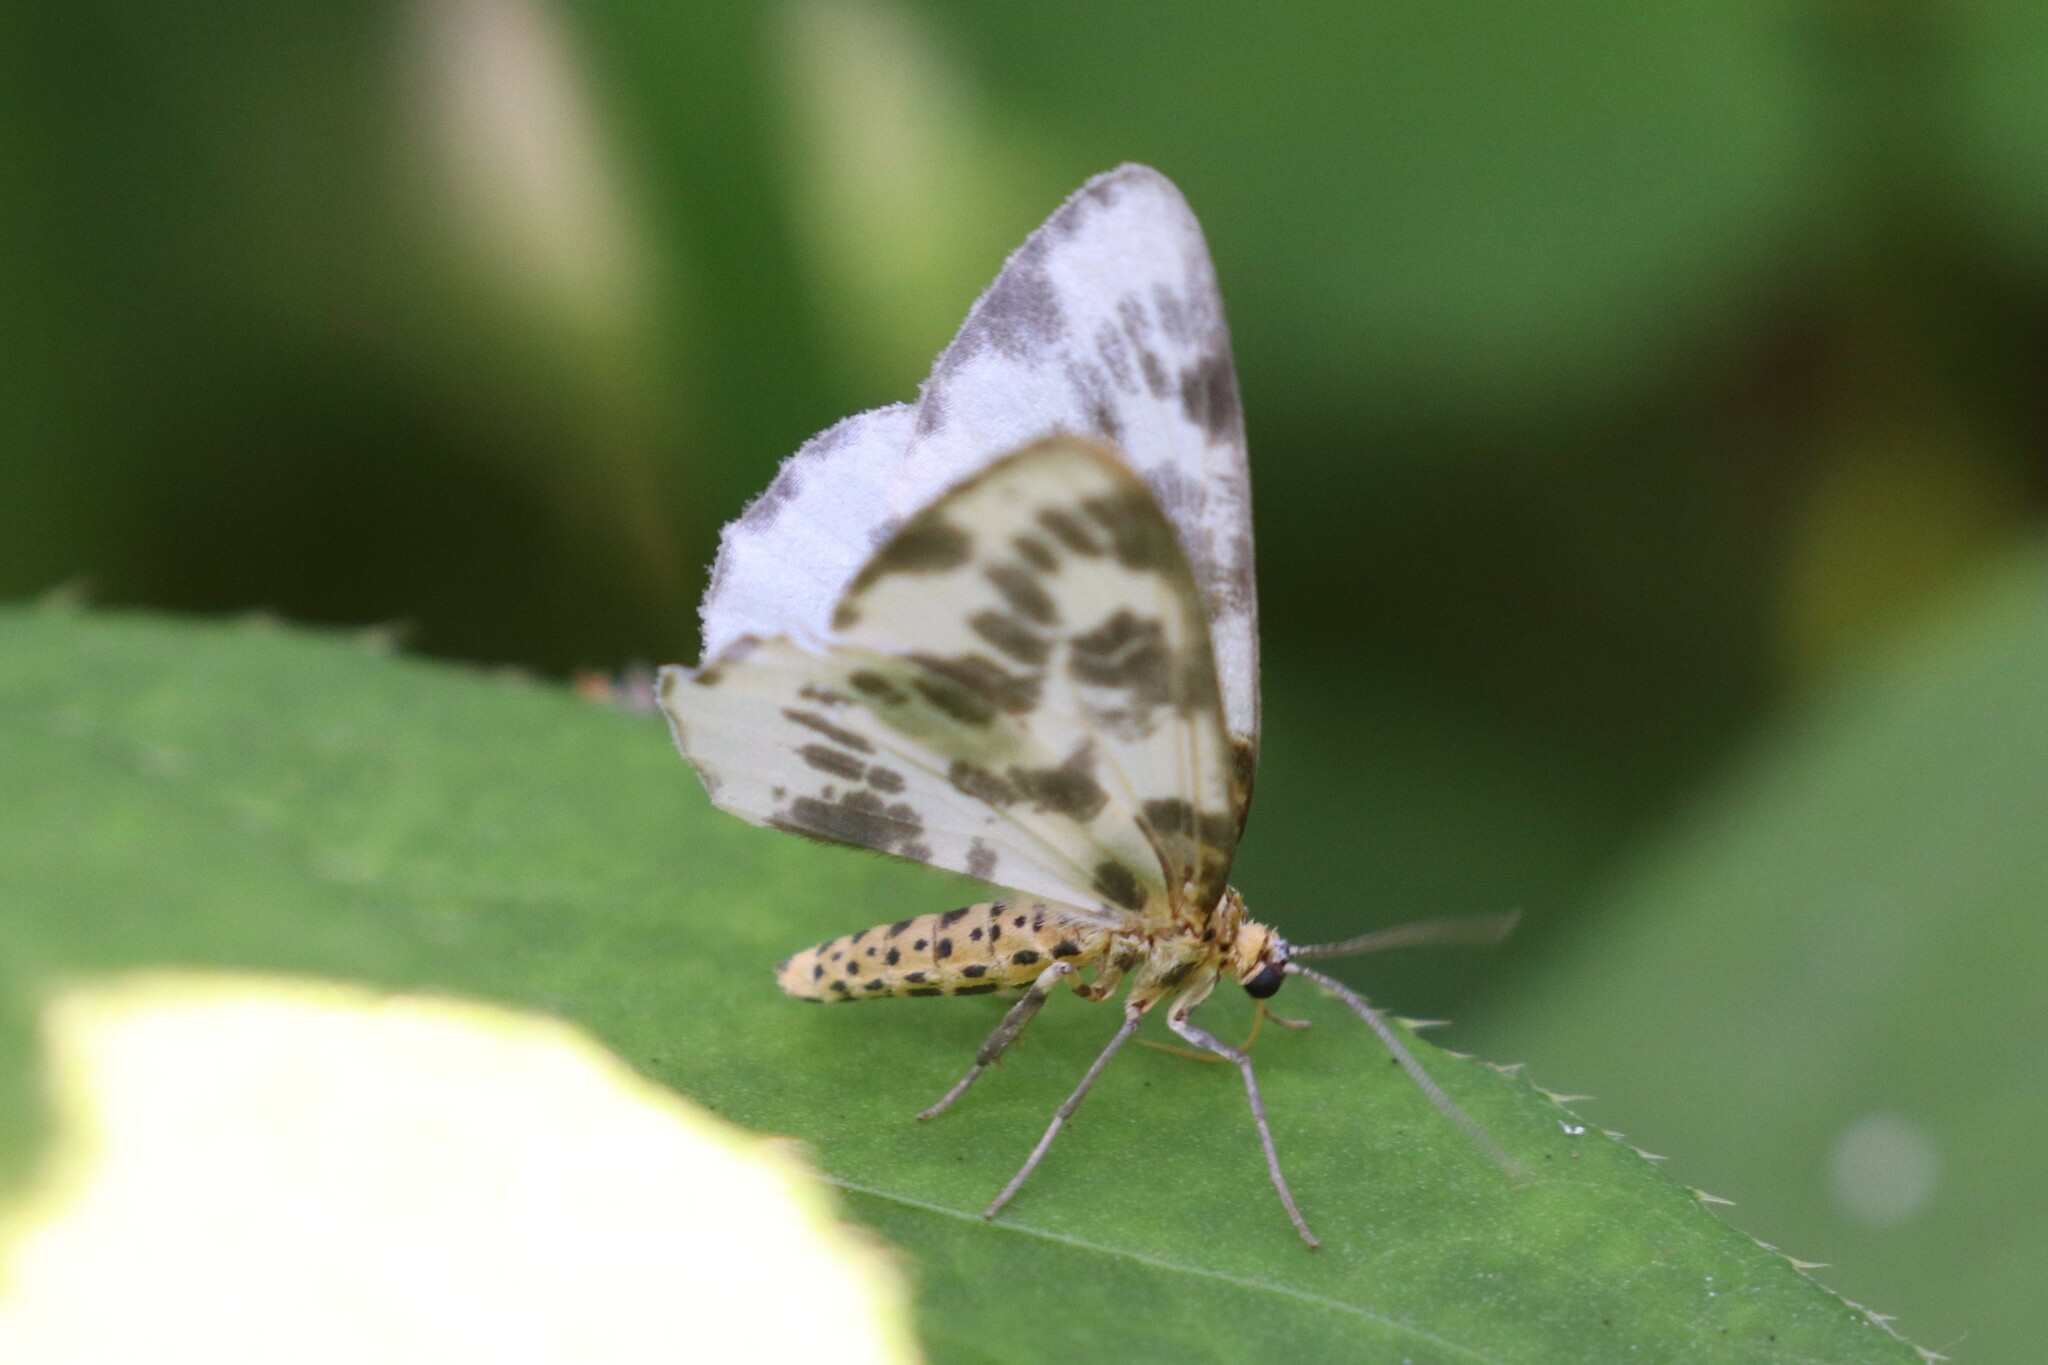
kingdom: Animalia
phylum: Arthropoda
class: Insecta
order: Lepidoptera
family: Geometridae
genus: Abraxas
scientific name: Abraxas sylvata
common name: Clouded magpie
